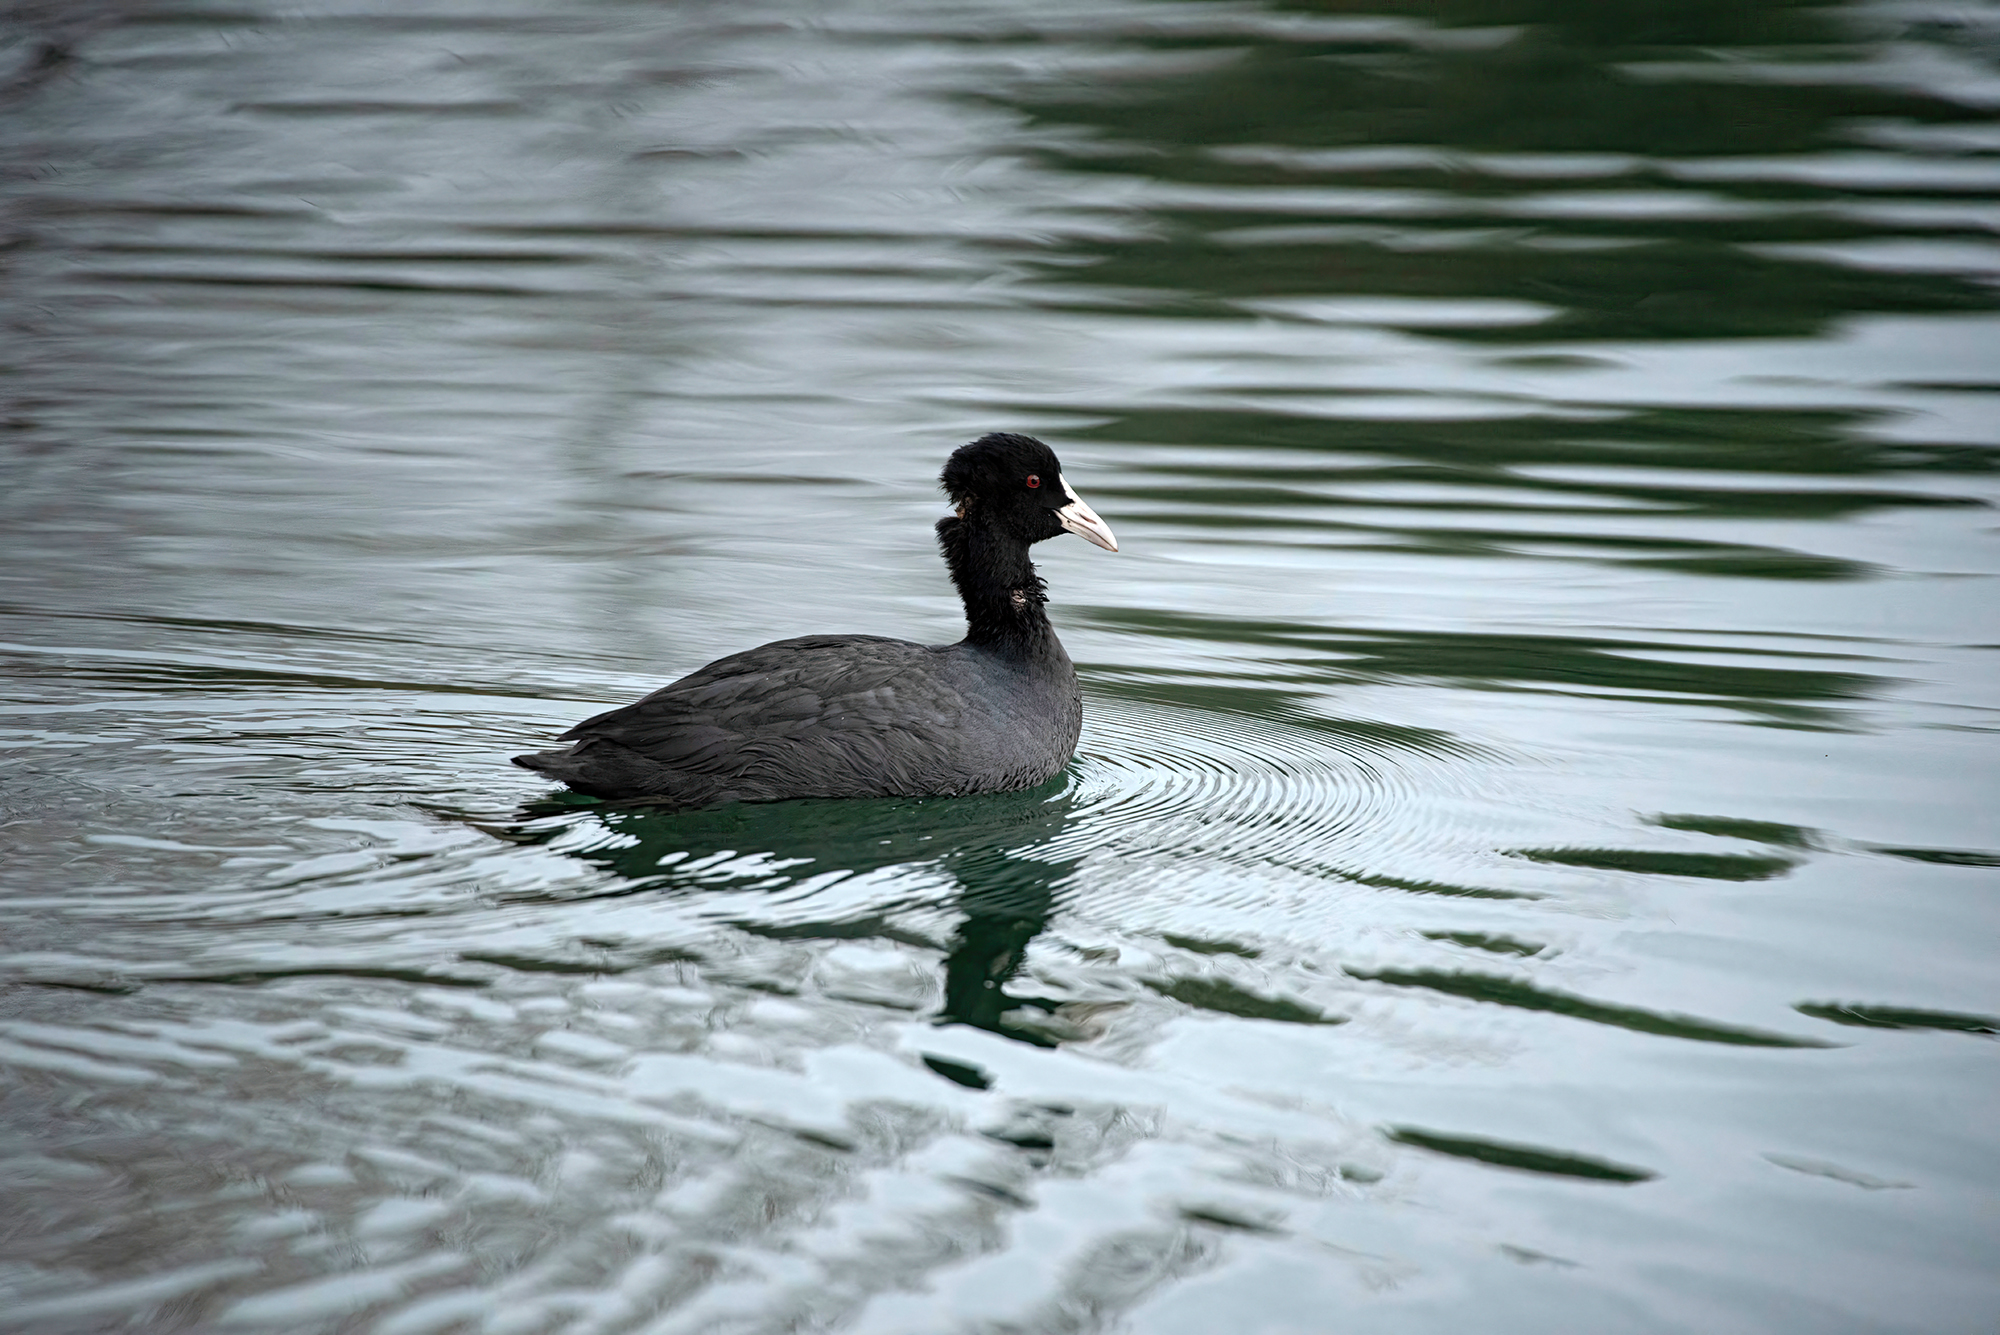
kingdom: Animalia
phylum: Chordata
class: Aves
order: Gruiformes
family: Rallidae
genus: Fulica
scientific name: Fulica atra
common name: Eurasian coot
